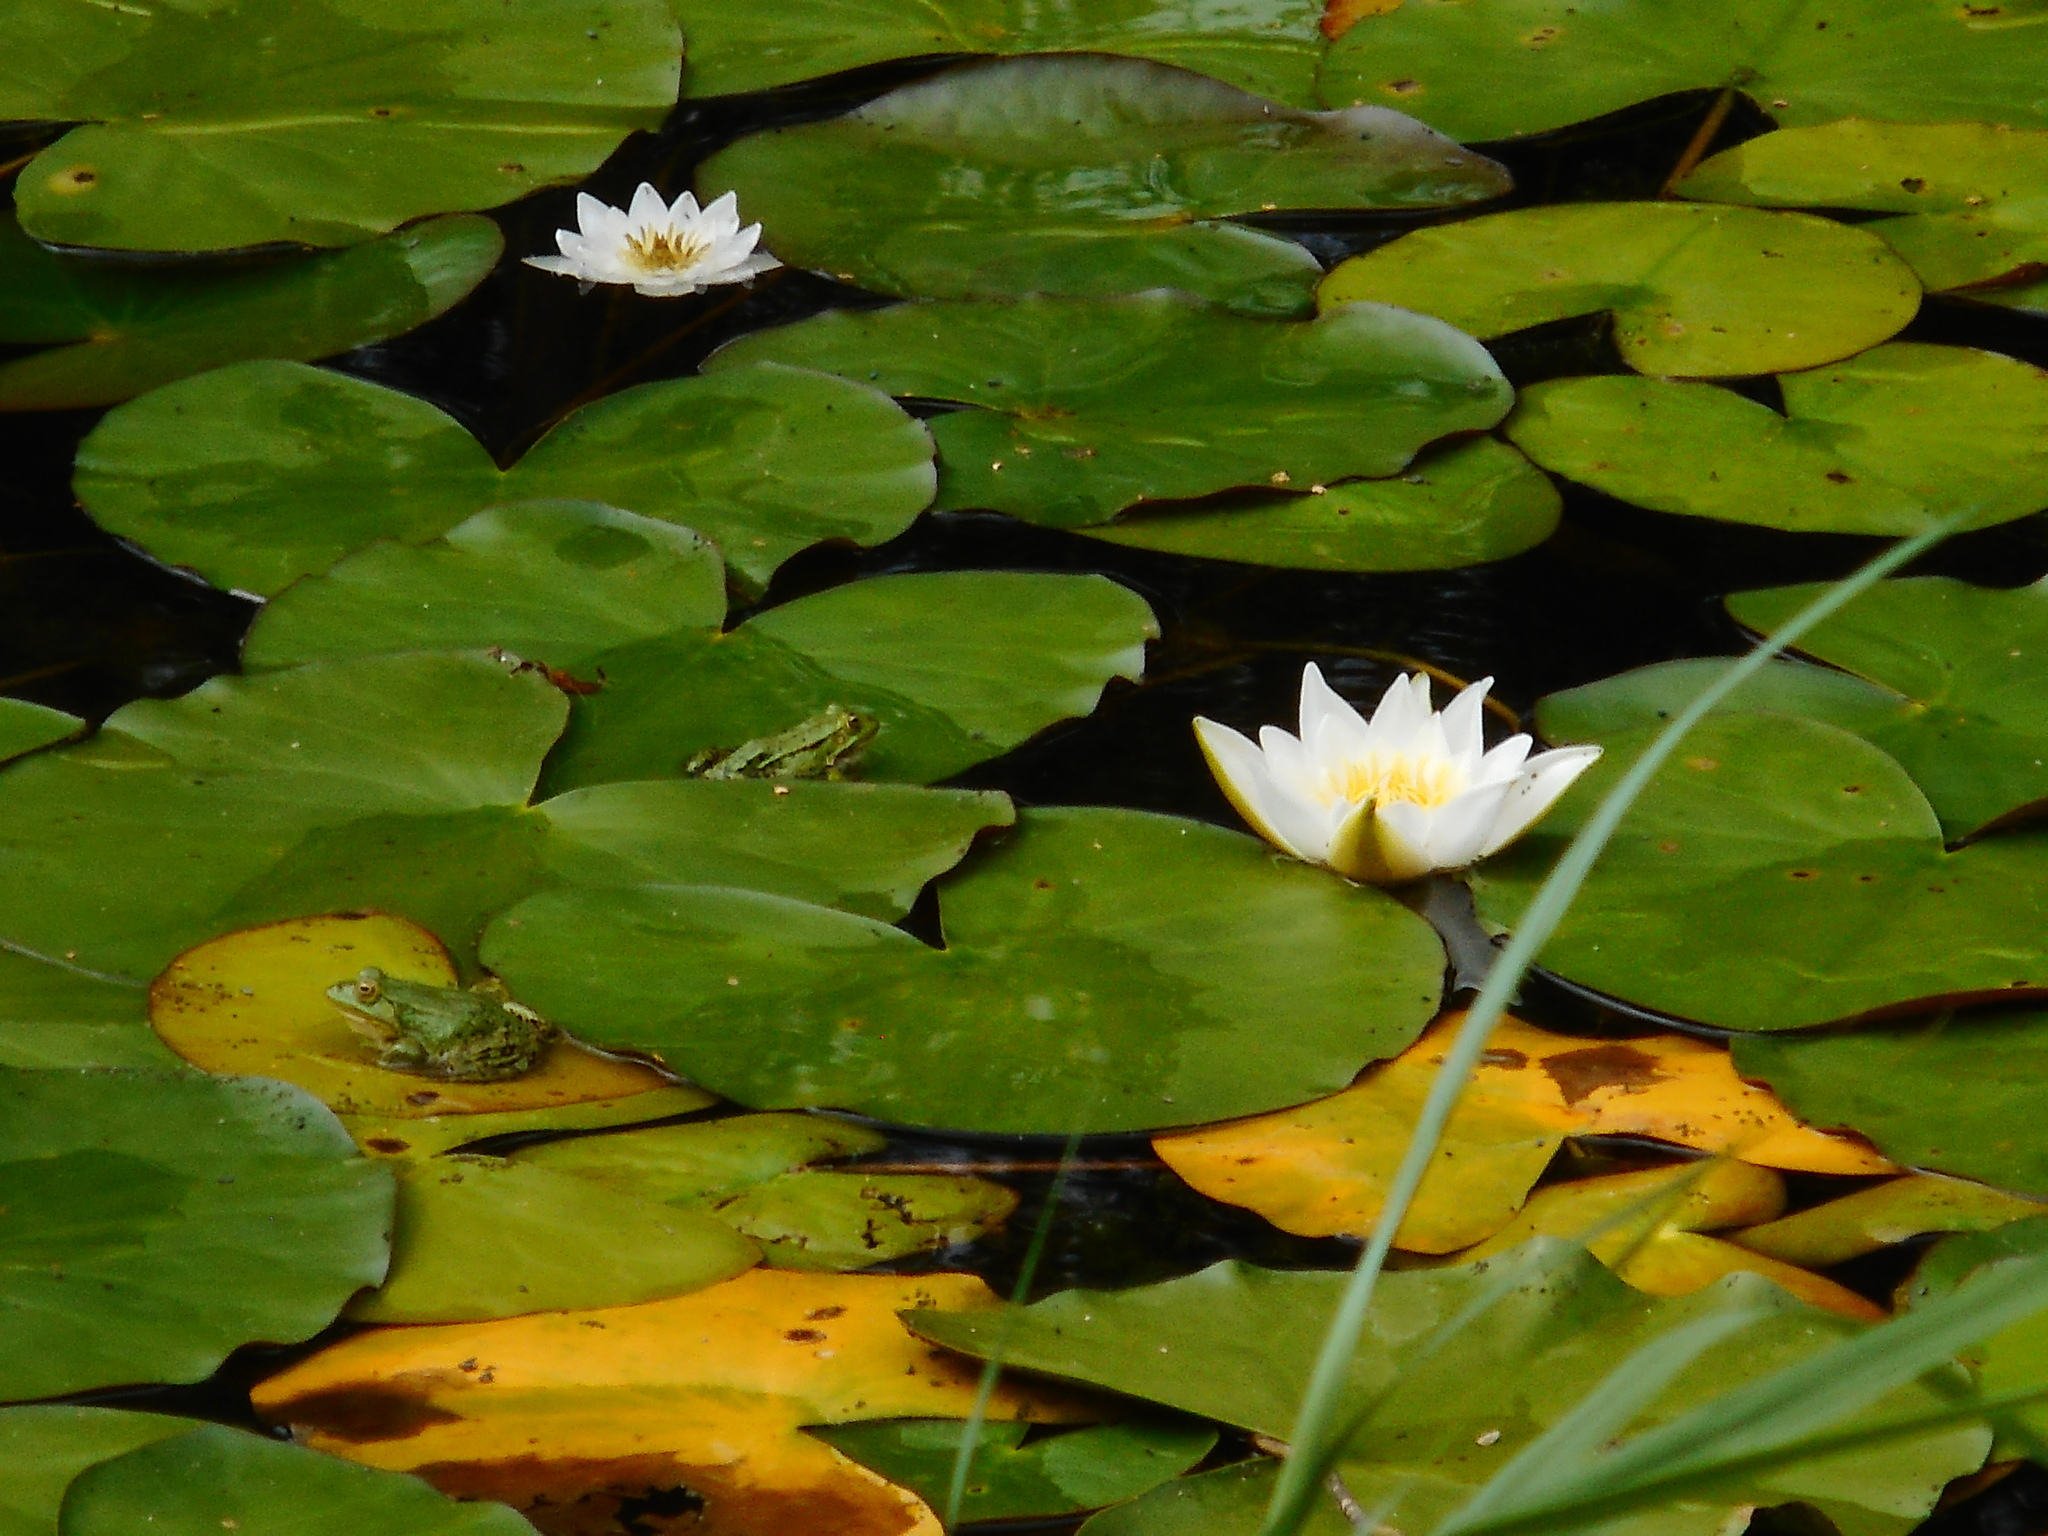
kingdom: Plantae
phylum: Tracheophyta
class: Magnoliopsida
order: Nymphaeales
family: Nymphaeaceae
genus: Nymphaea
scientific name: Nymphaea candida
